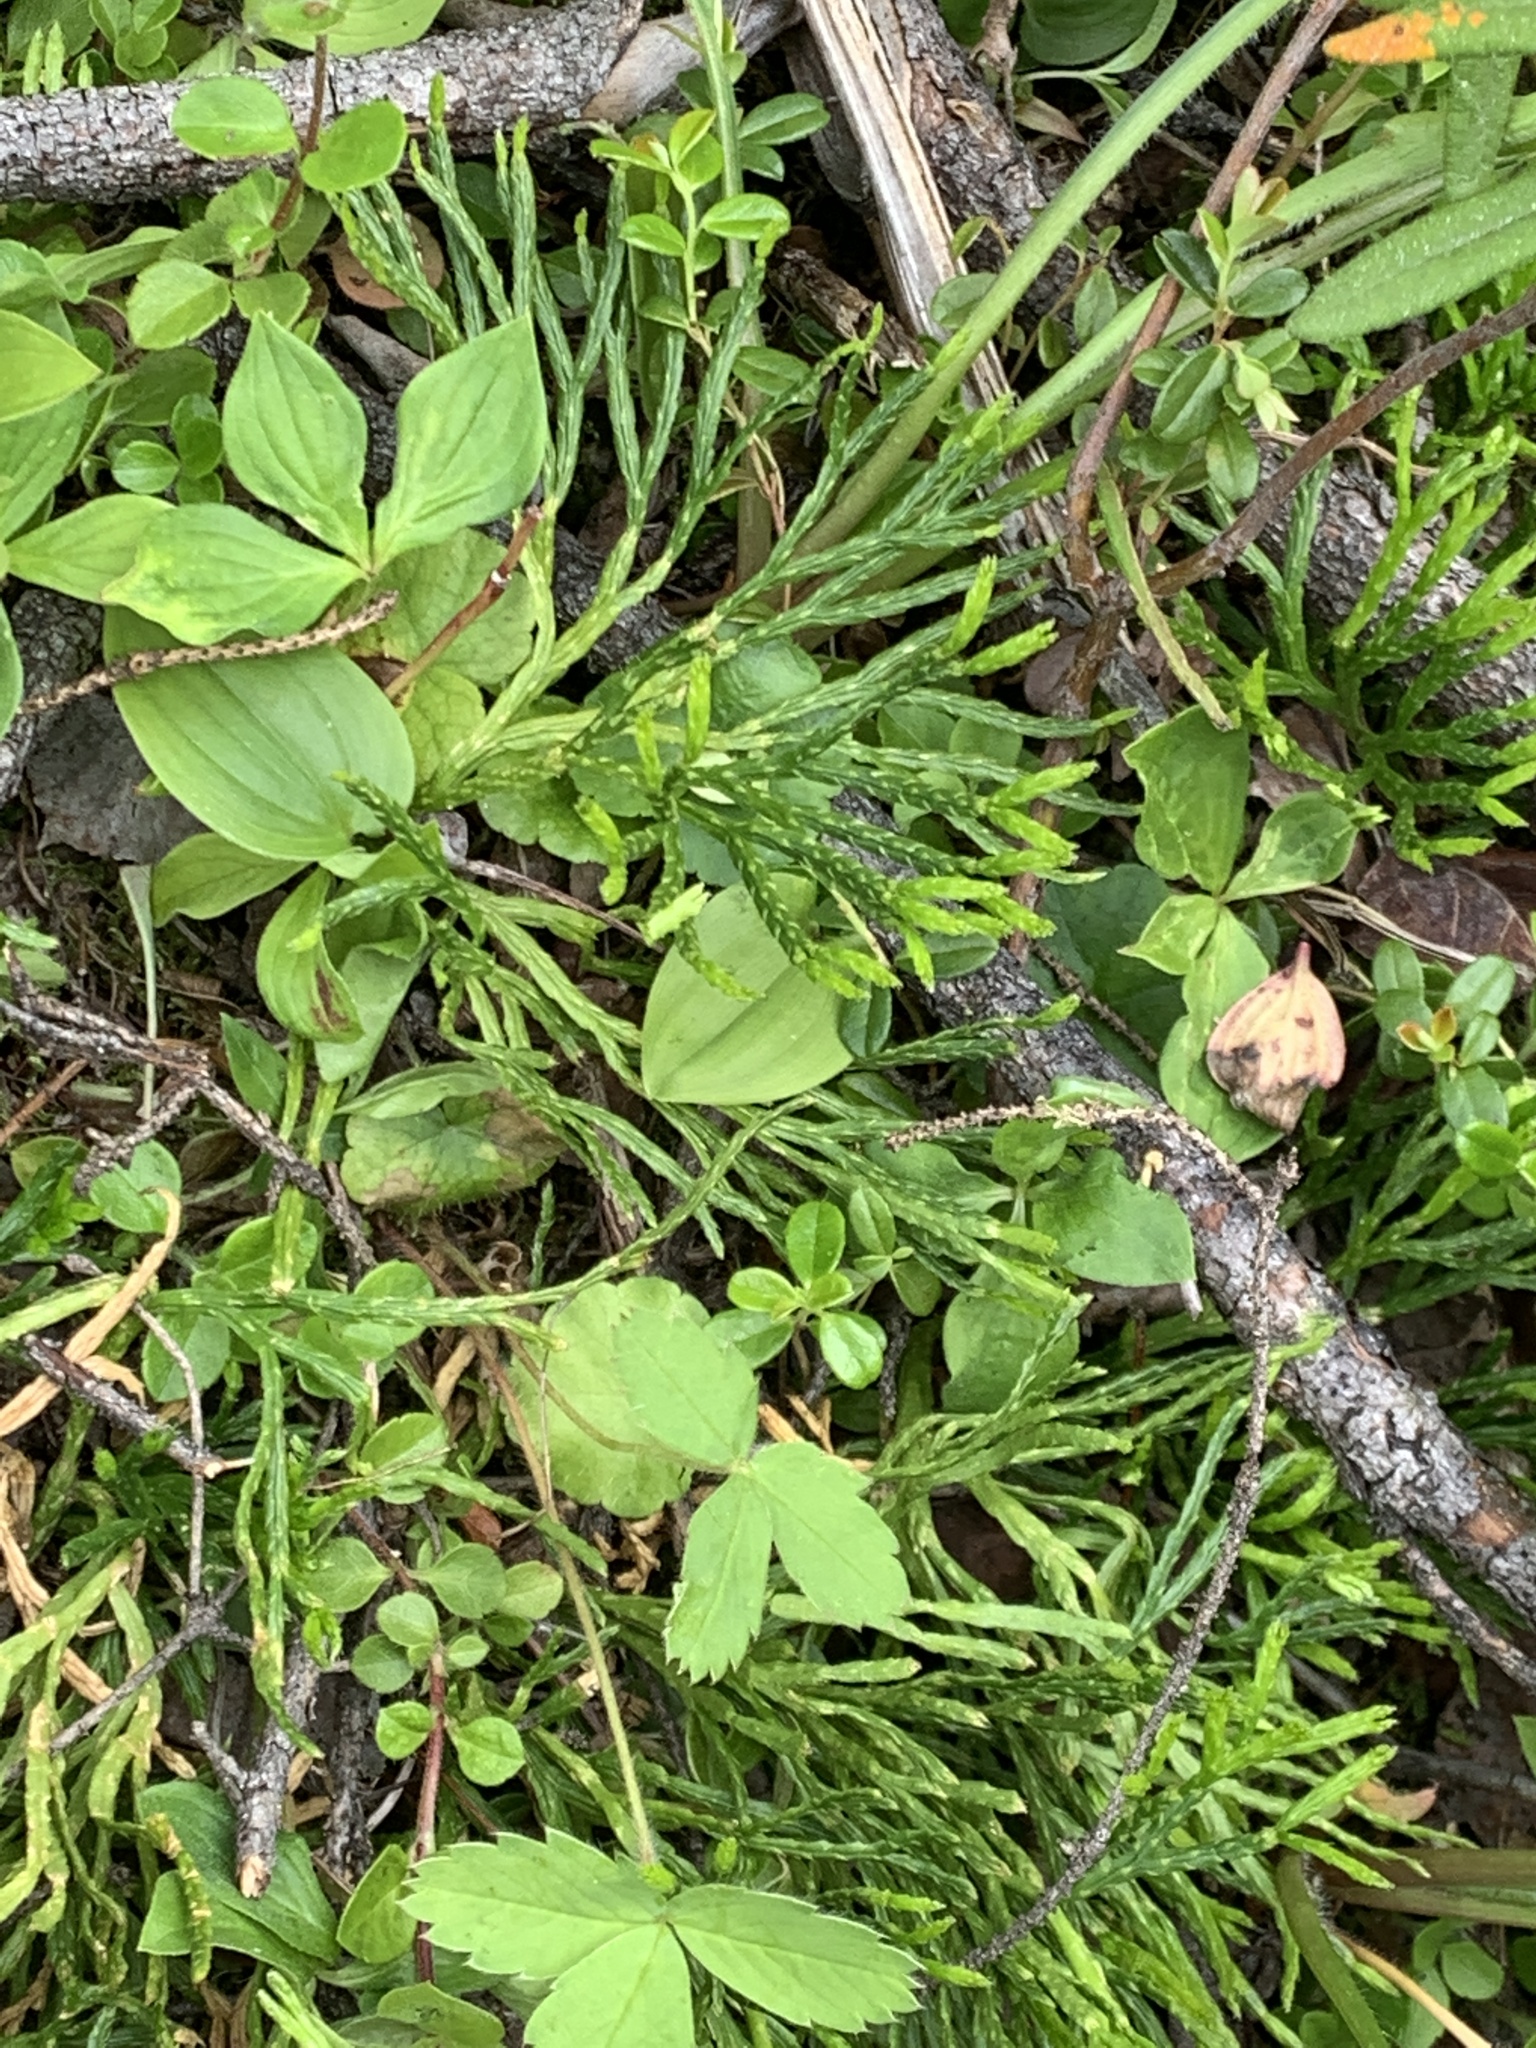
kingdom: Plantae
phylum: Tracheophyta
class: Lycopodiopsida
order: Lycopodiales
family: Lycopodiaceae
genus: Diphasiastrum
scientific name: Diphasiastrum complanatum
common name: Northern running-pine
